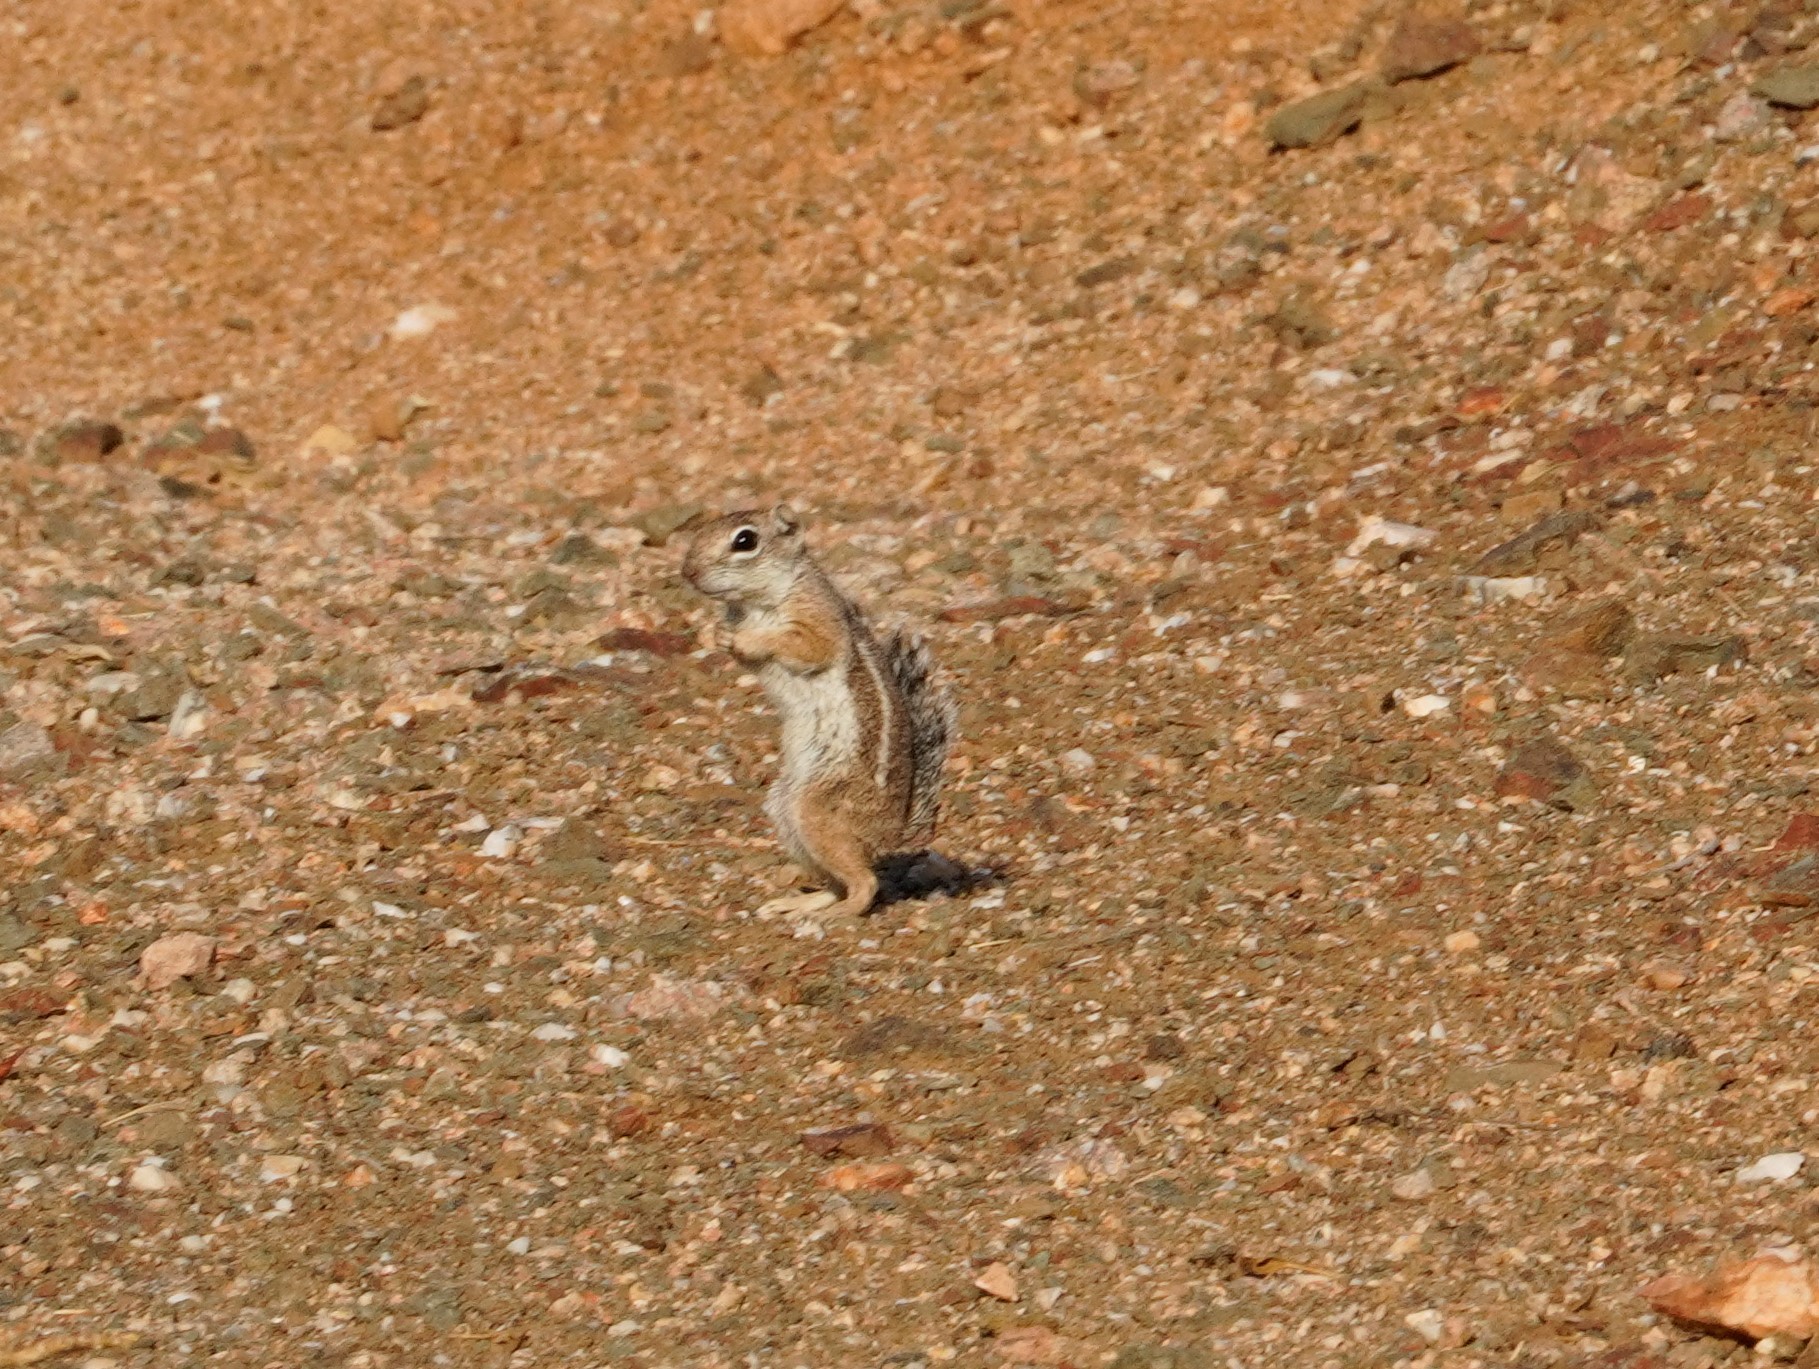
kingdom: Animalia
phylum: Chordata
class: Mammalia
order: Rodentia
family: Sciuridae
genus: Ammospermophilus
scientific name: Ammospermophilus harrisii
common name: Harris's antelope squirrel
